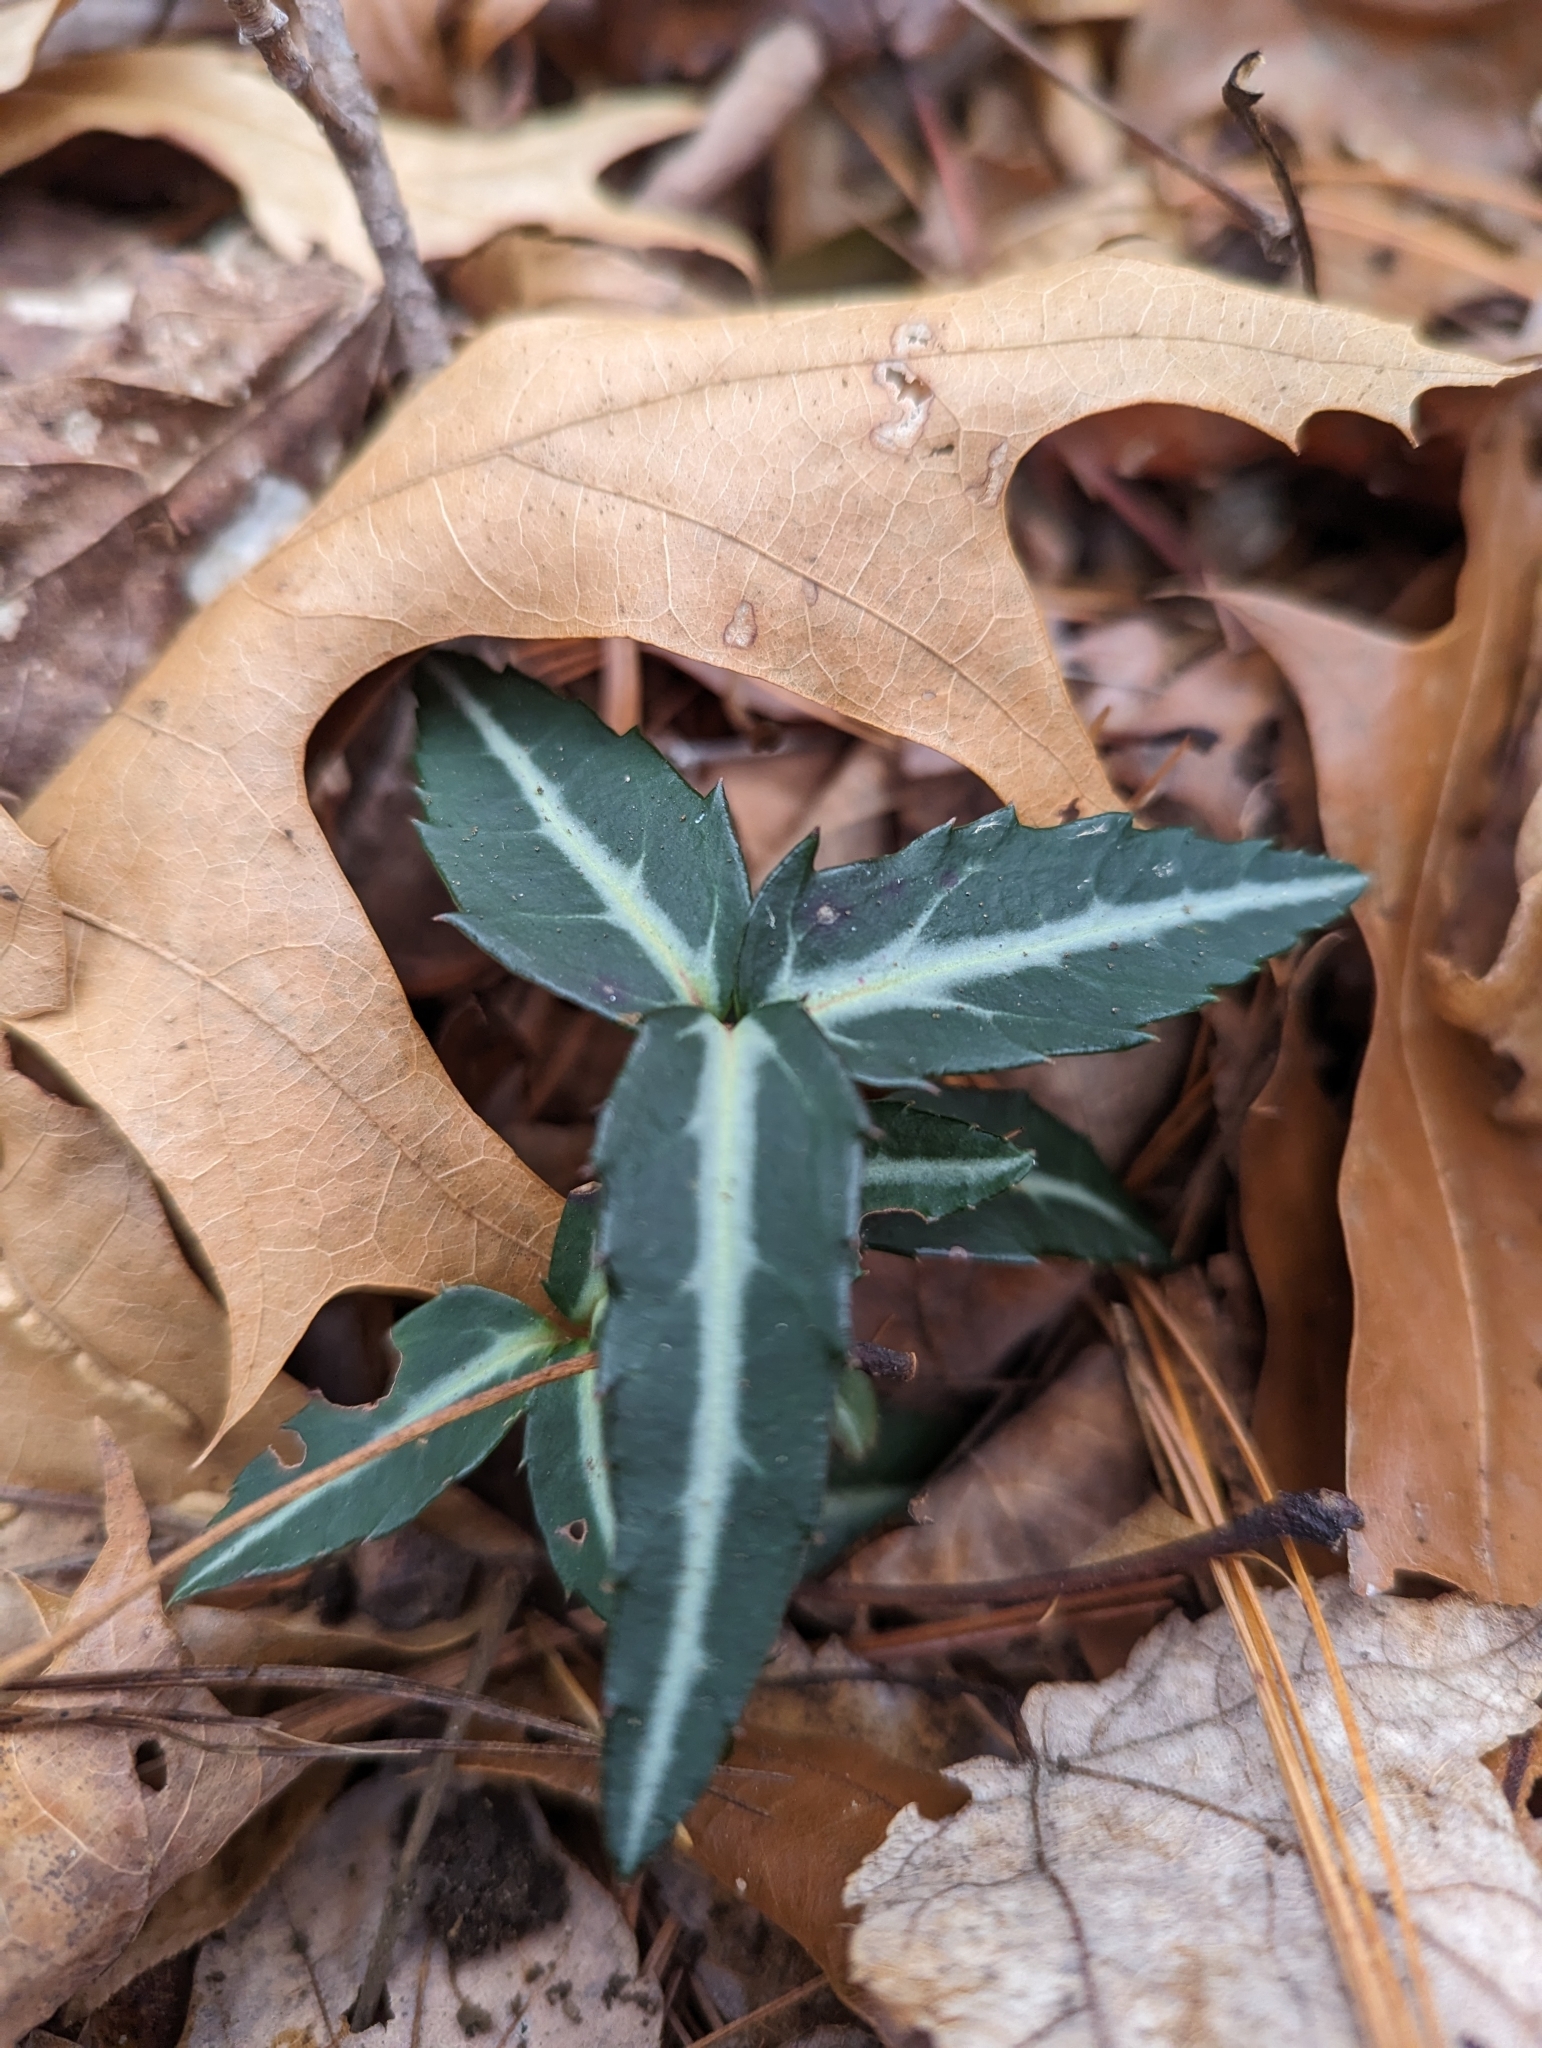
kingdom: Plantae
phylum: Tracheophyta
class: Magnoliopsida
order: Ericales
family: Ericaceae
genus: Chimaphila
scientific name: Chimaphila maculata
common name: Spotted pipsissewa
